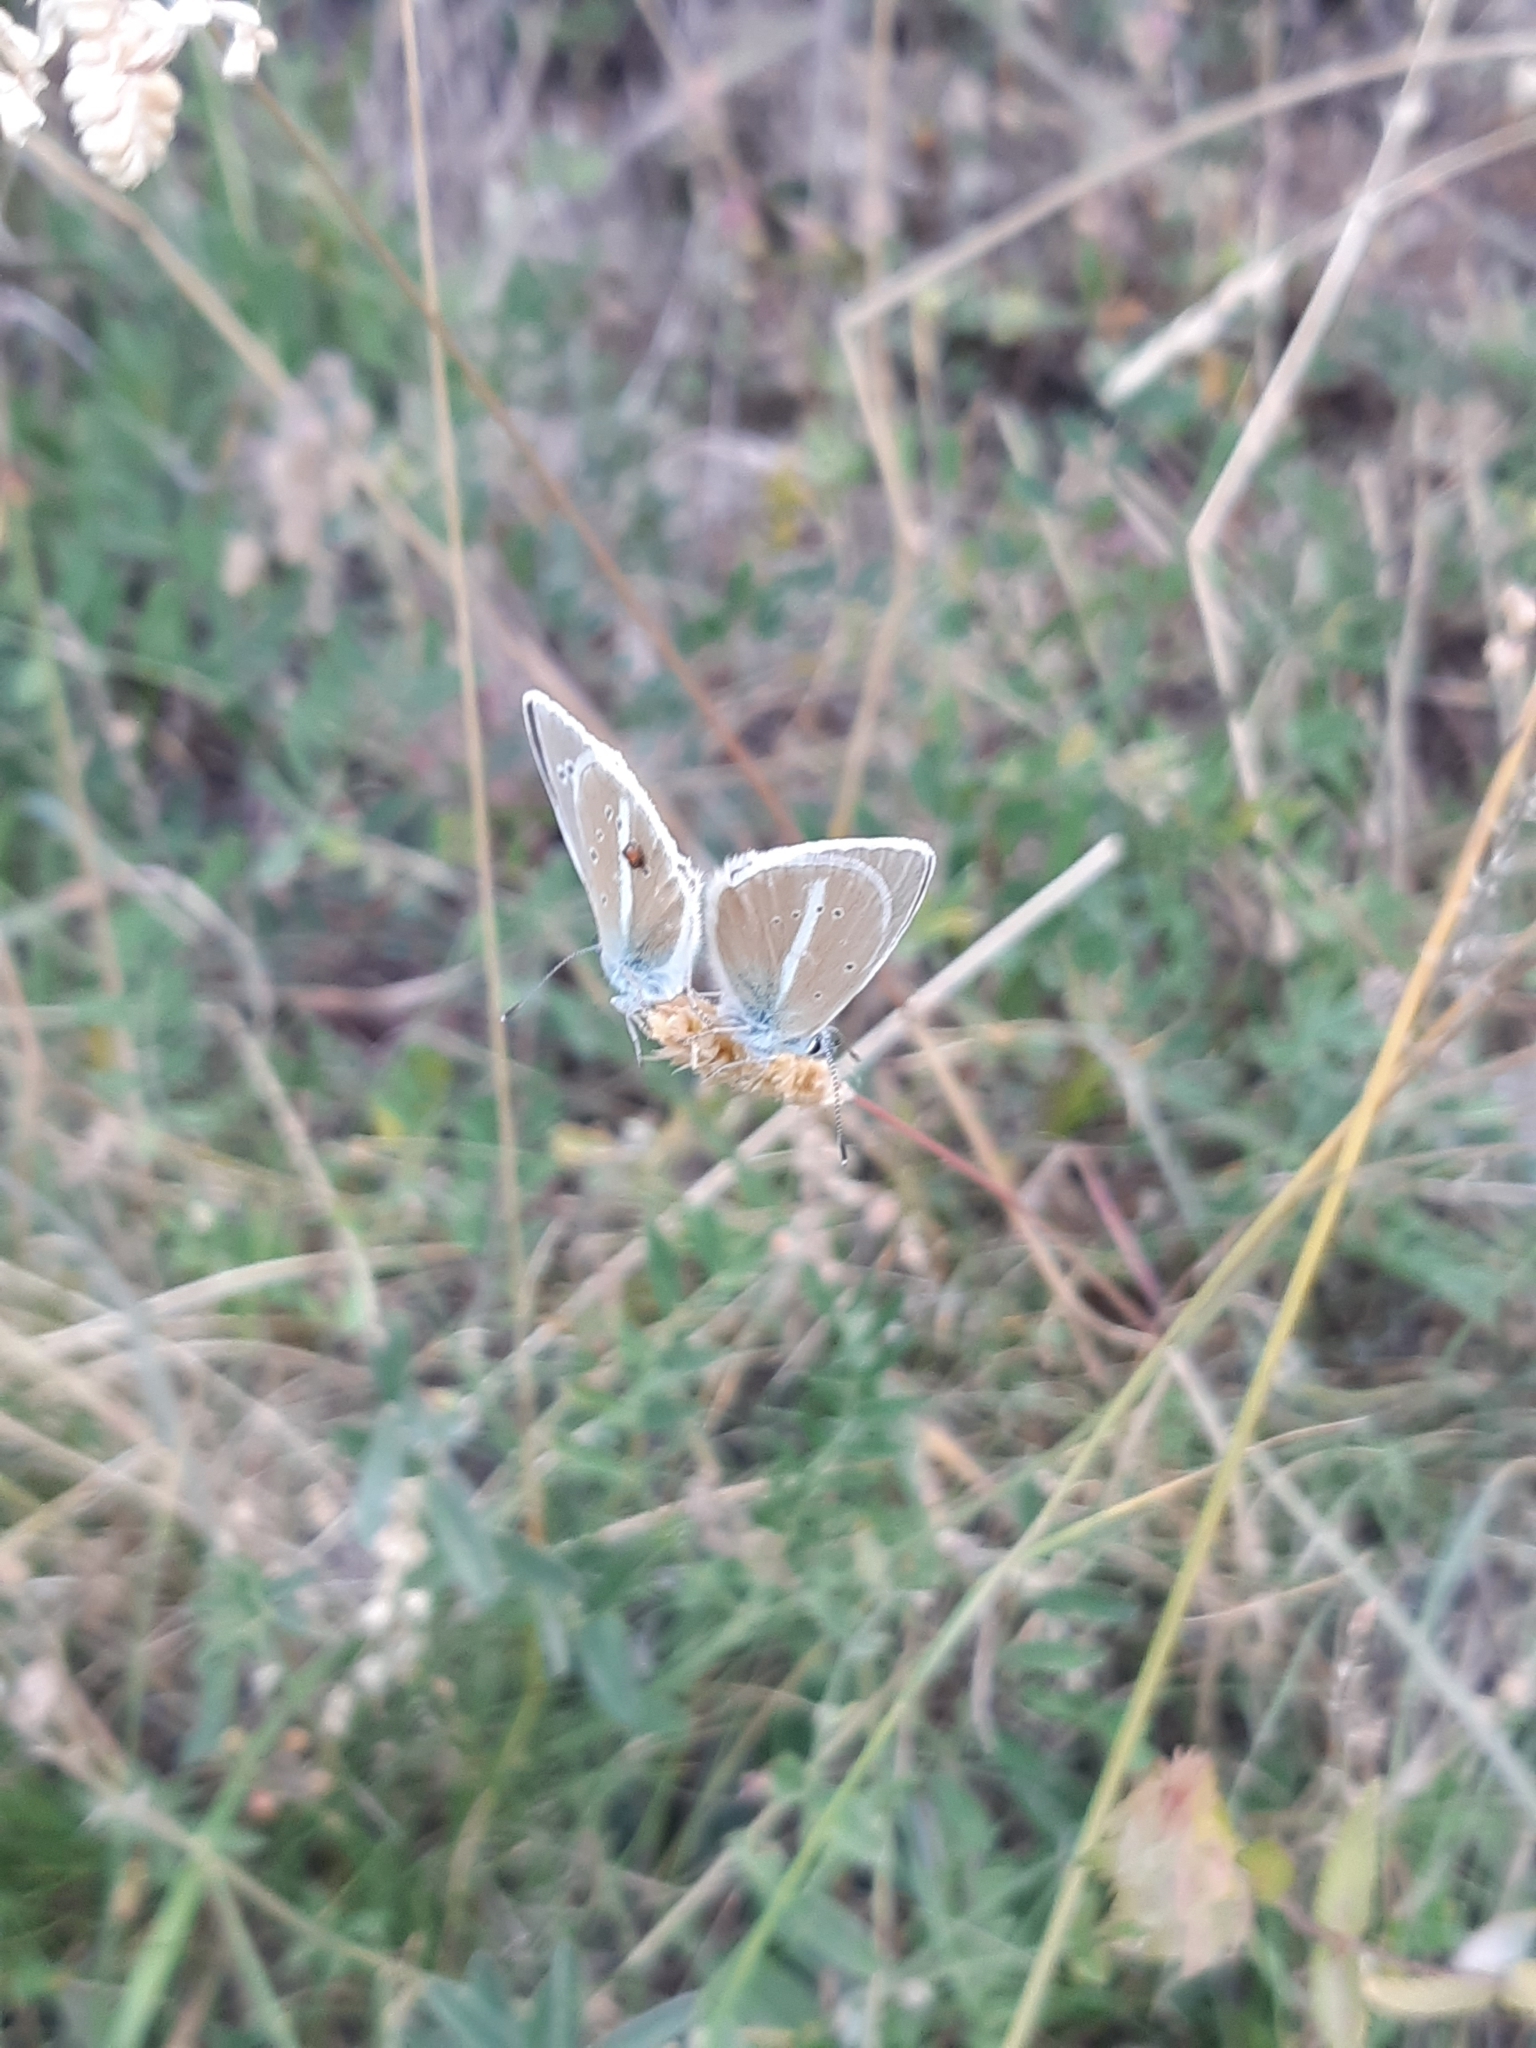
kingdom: Animalia
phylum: Arthropoda
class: Insecta
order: Lepidoptera
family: Lycaenidae
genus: Agrodiaetus
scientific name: Agrodiaetus damon
